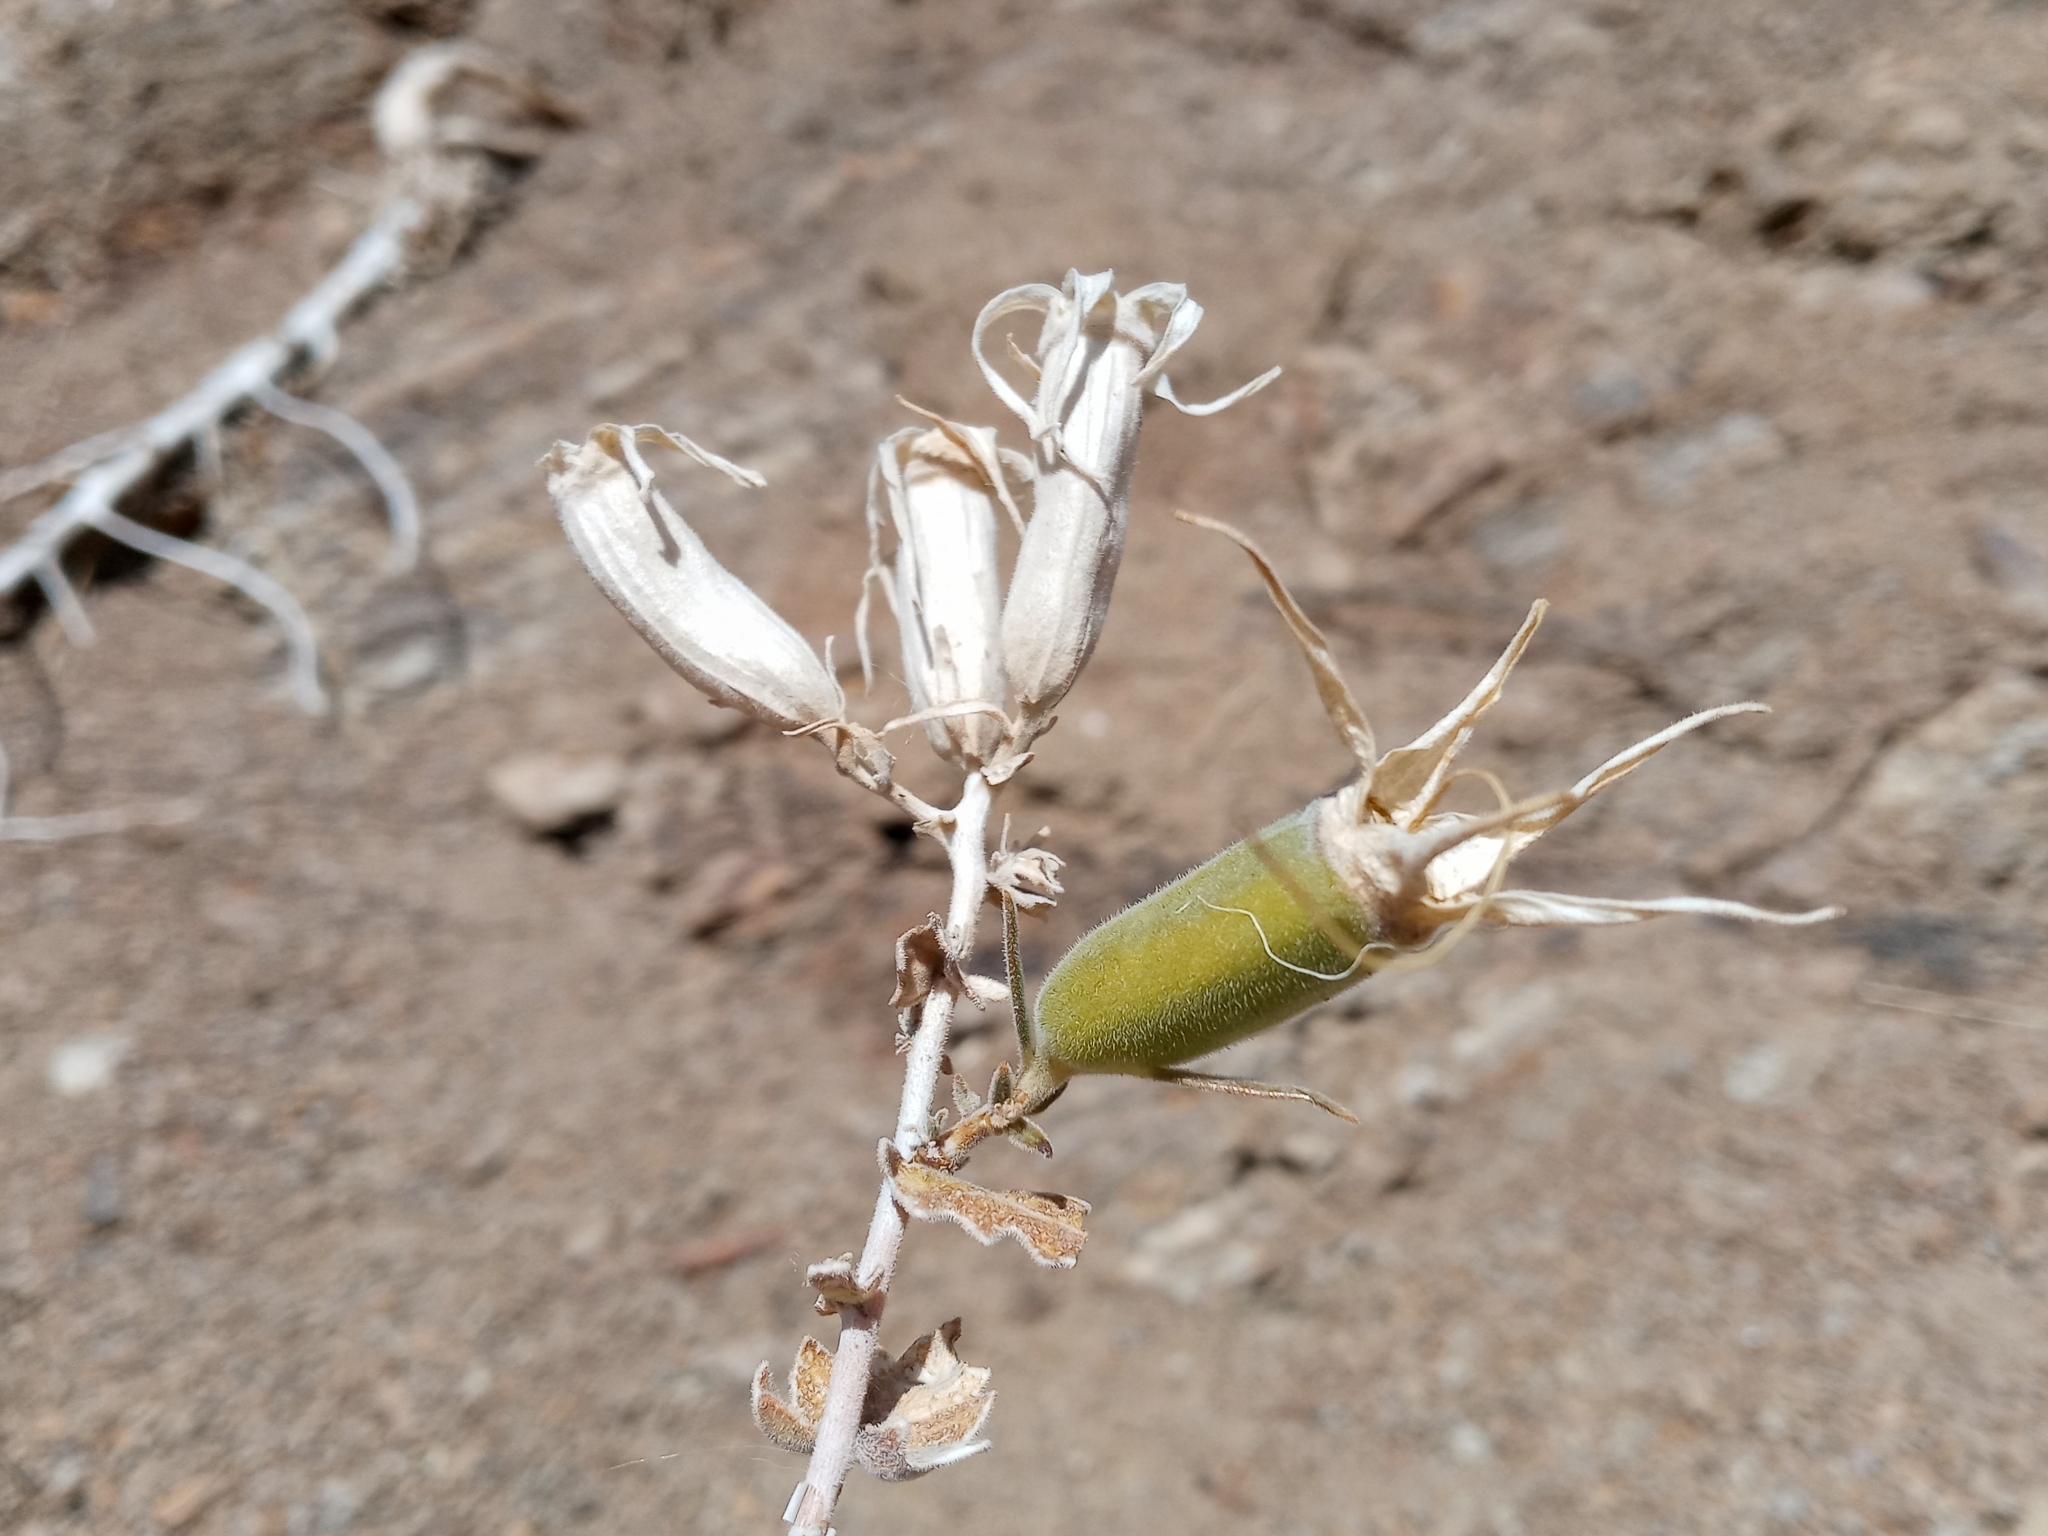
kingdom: Plantae
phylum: Tracheophyta
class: Magnoliopsida
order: Cornales
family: Loasaceae
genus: Mentzelia
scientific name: Mentzelia laevicaulis
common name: Smooth-stem blazingstar
